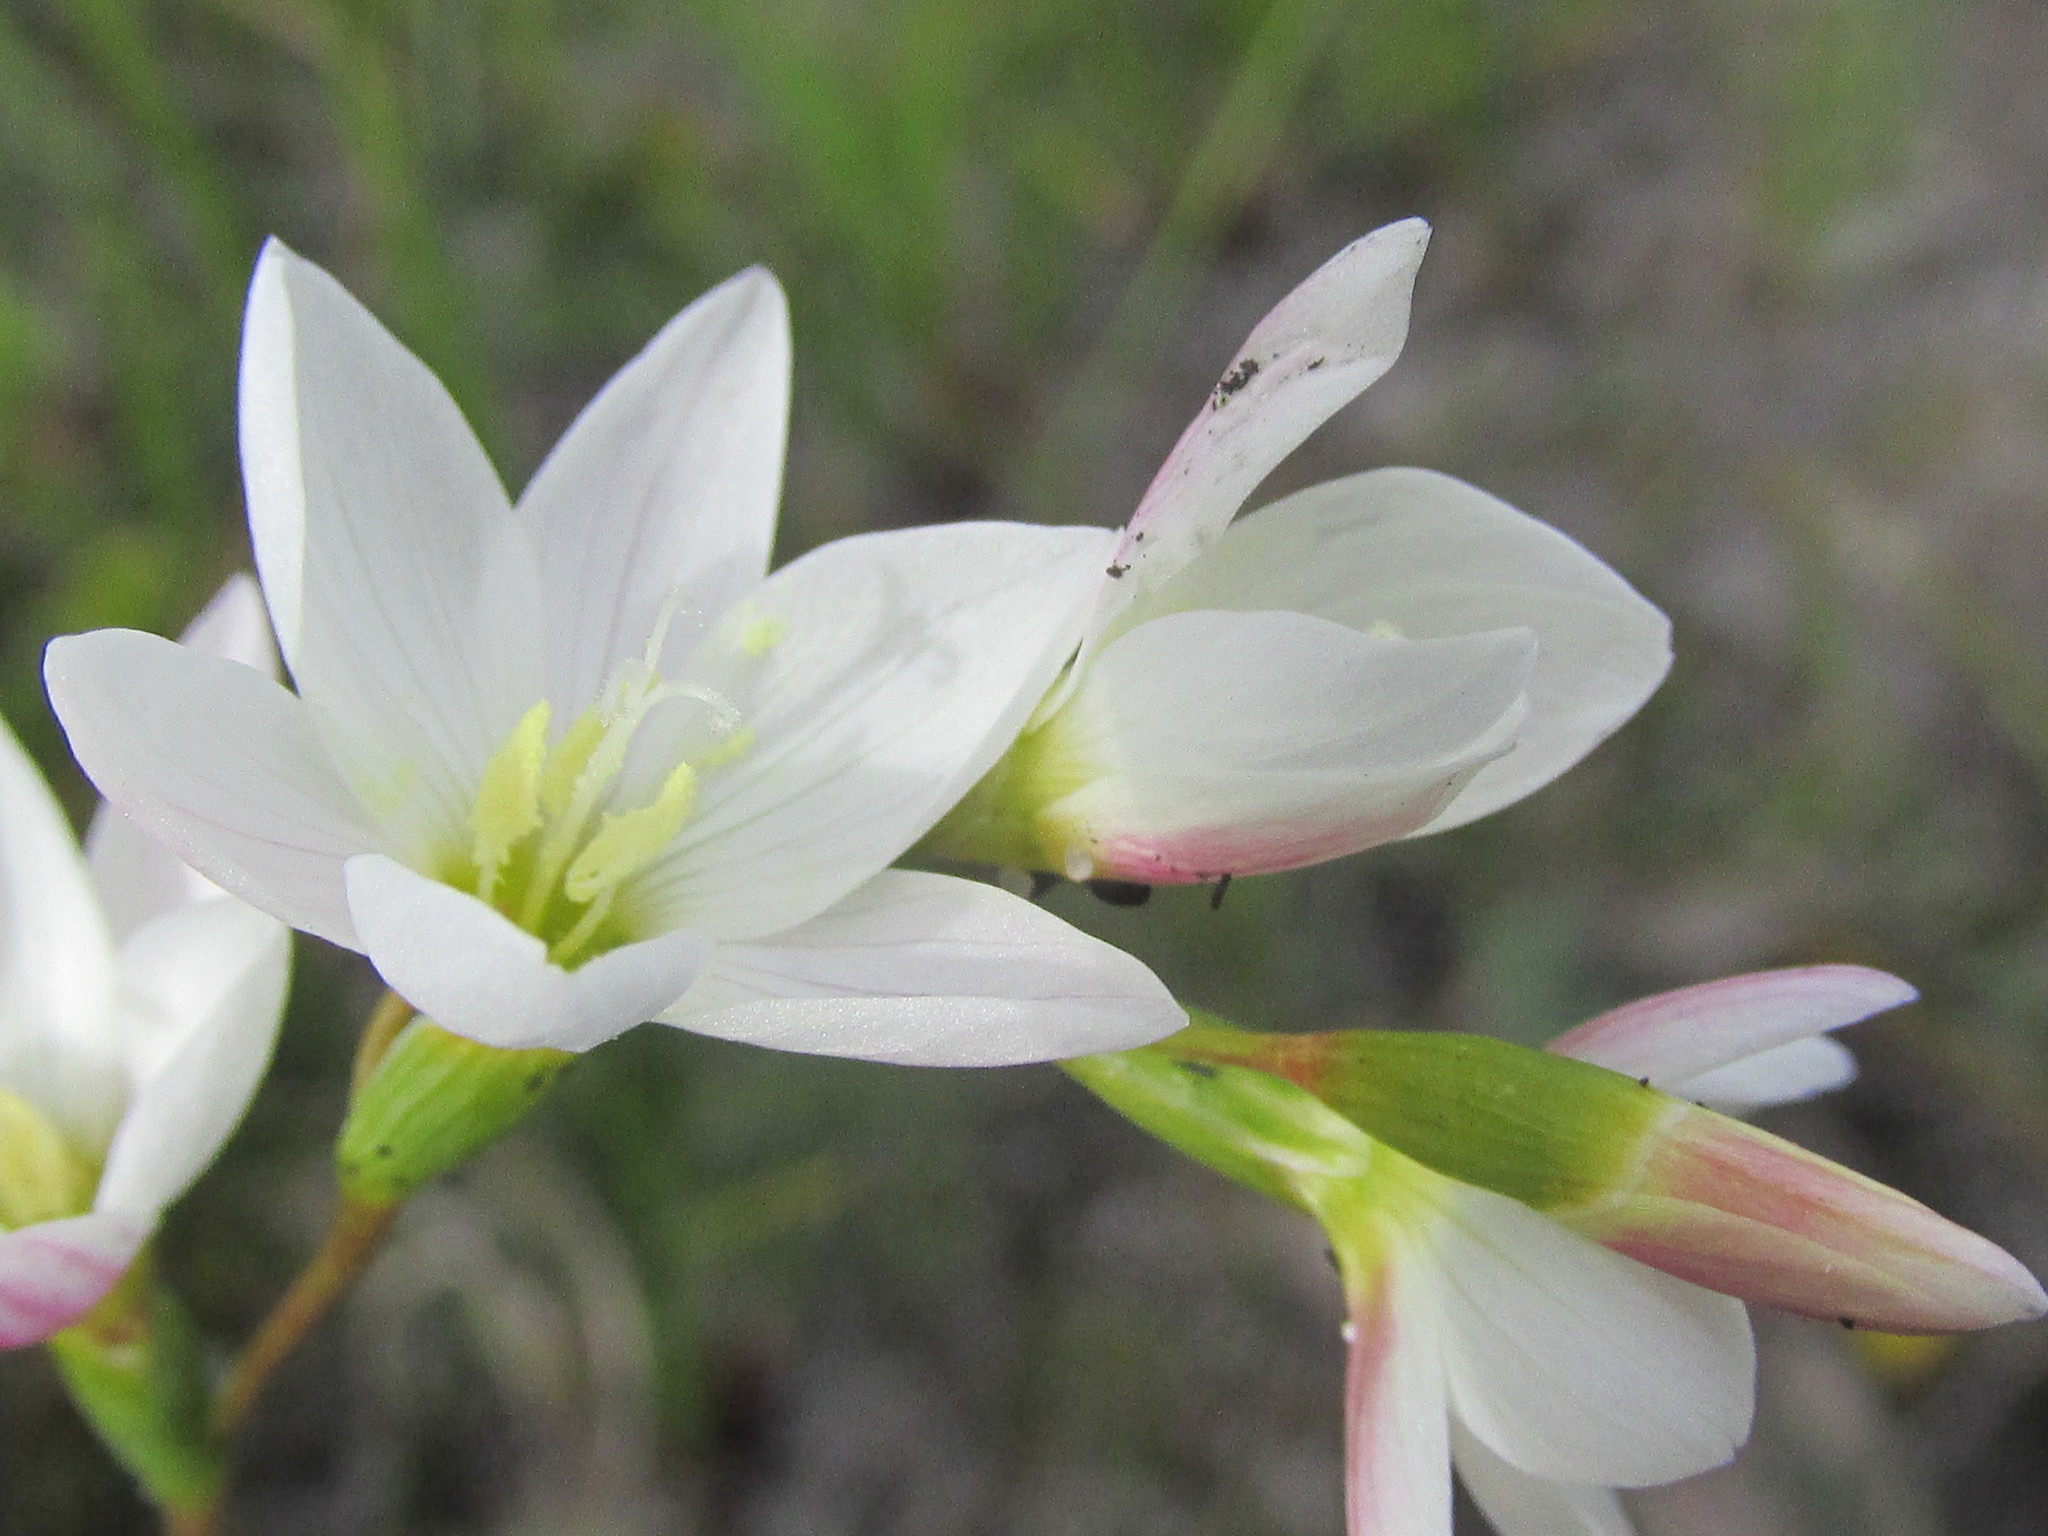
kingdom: Plantae
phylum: Tracheophyta
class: Liliopsida
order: Asparagales
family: Iridaceae
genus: Geissorhiza
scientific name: Geissorhiza similis
